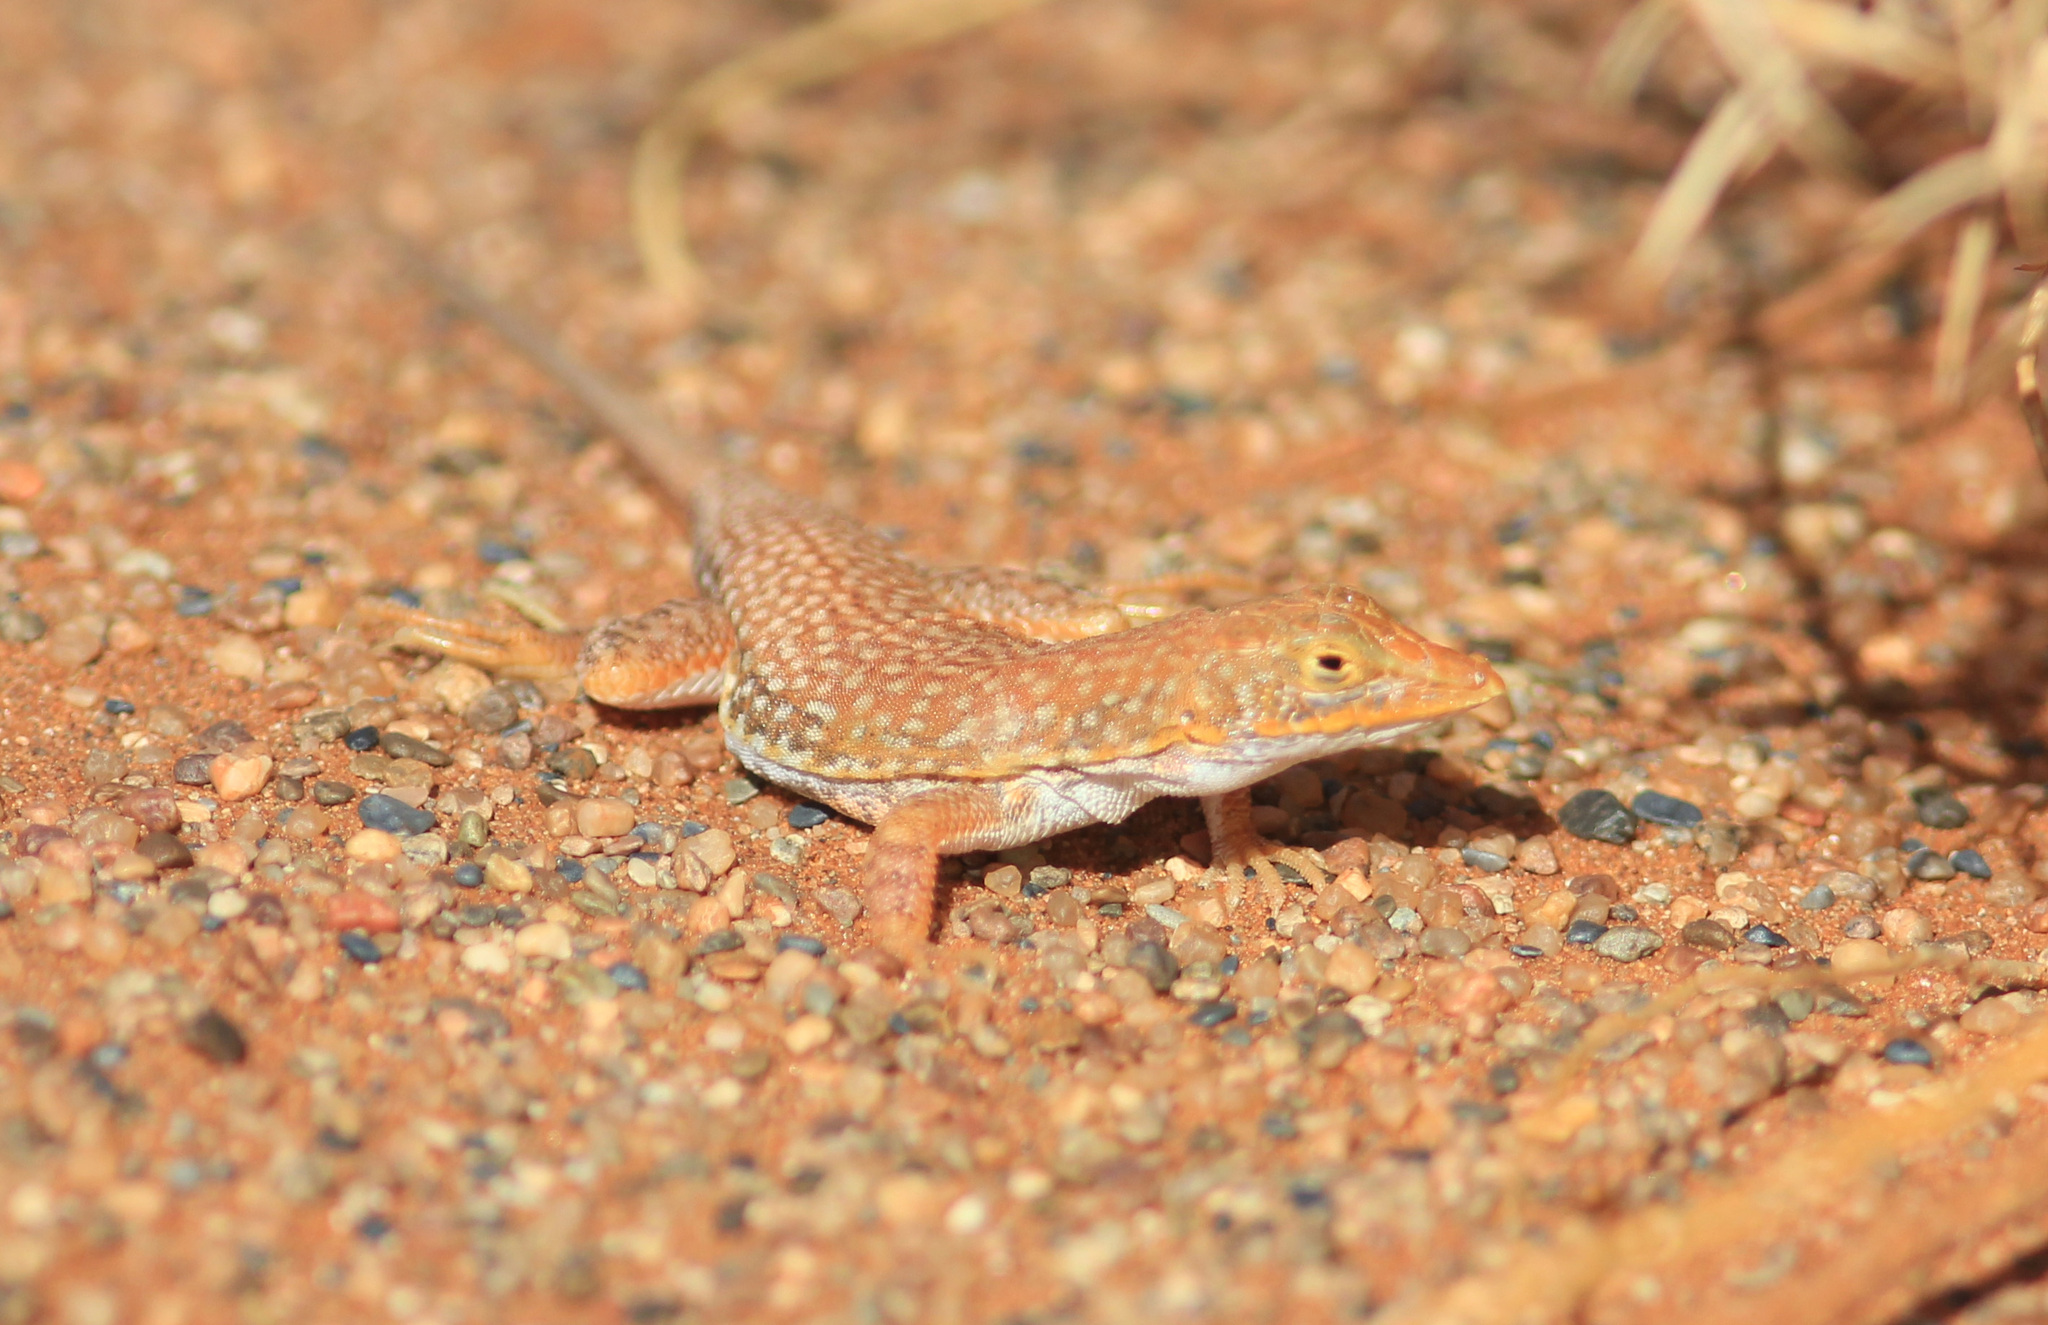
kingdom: Animalia
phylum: Chordata
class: Squamata
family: Lacertidae
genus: Meroles
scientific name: Meroles cuneirostris
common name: Wedge-snouted desert lizard
